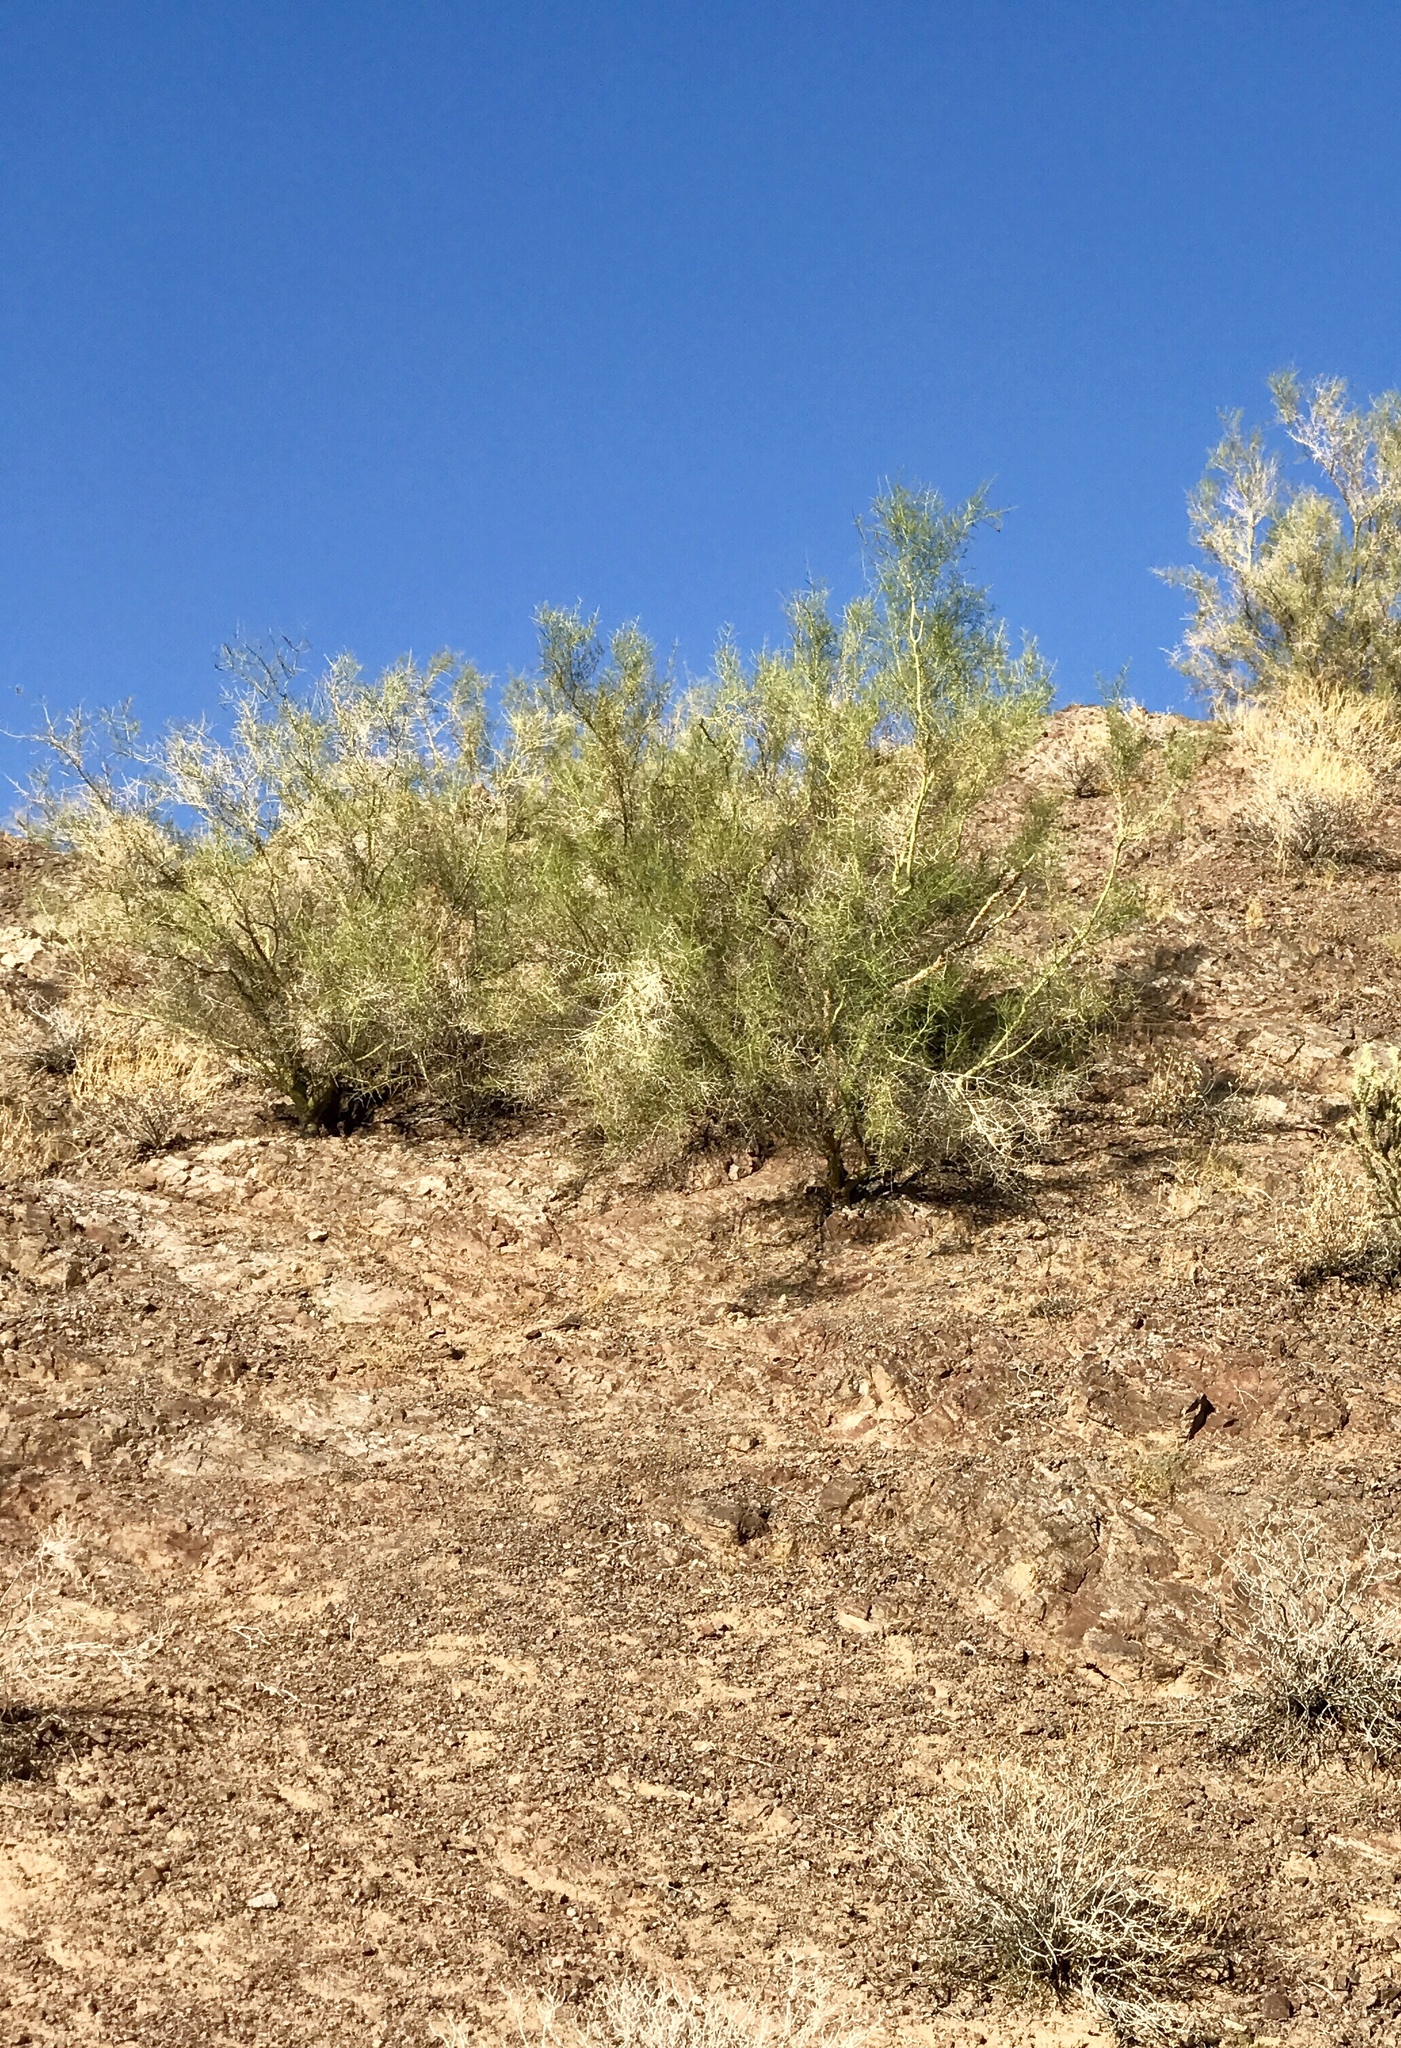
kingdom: Plantae
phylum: Tracheophyta
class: Magnoliopsida
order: Fabales
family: Fabaceae
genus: Parkinsonia
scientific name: Parkinsonia florida
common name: Blue paloverde
